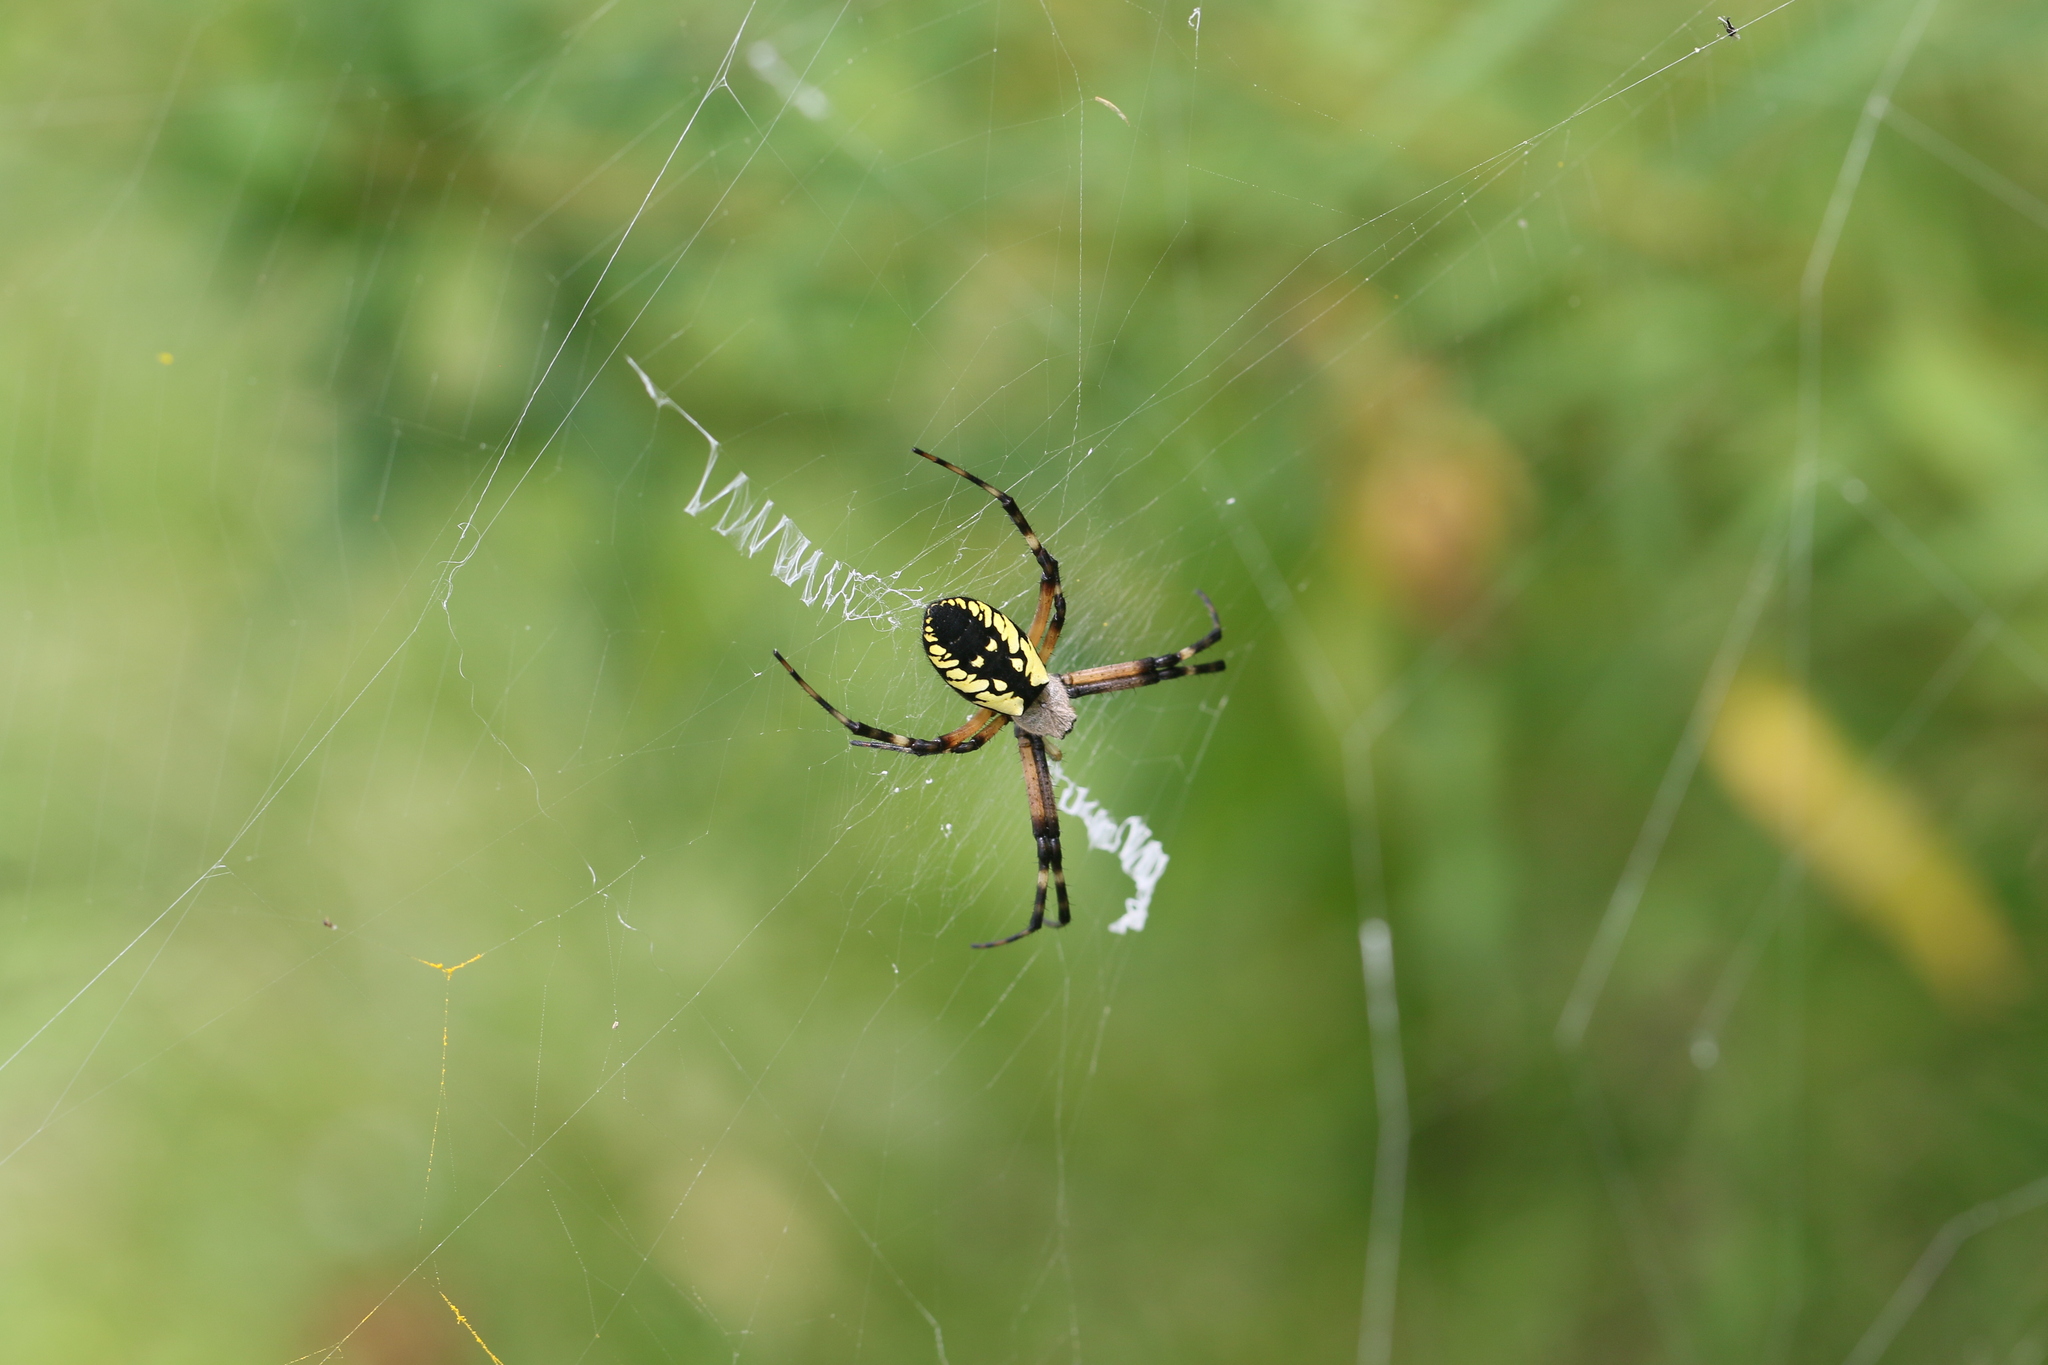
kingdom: Animalia
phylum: Arthropoda
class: Arachnida
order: Araneae
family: Araneidae
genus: Argiope
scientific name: Argiope aurantia
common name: Orb weavers
